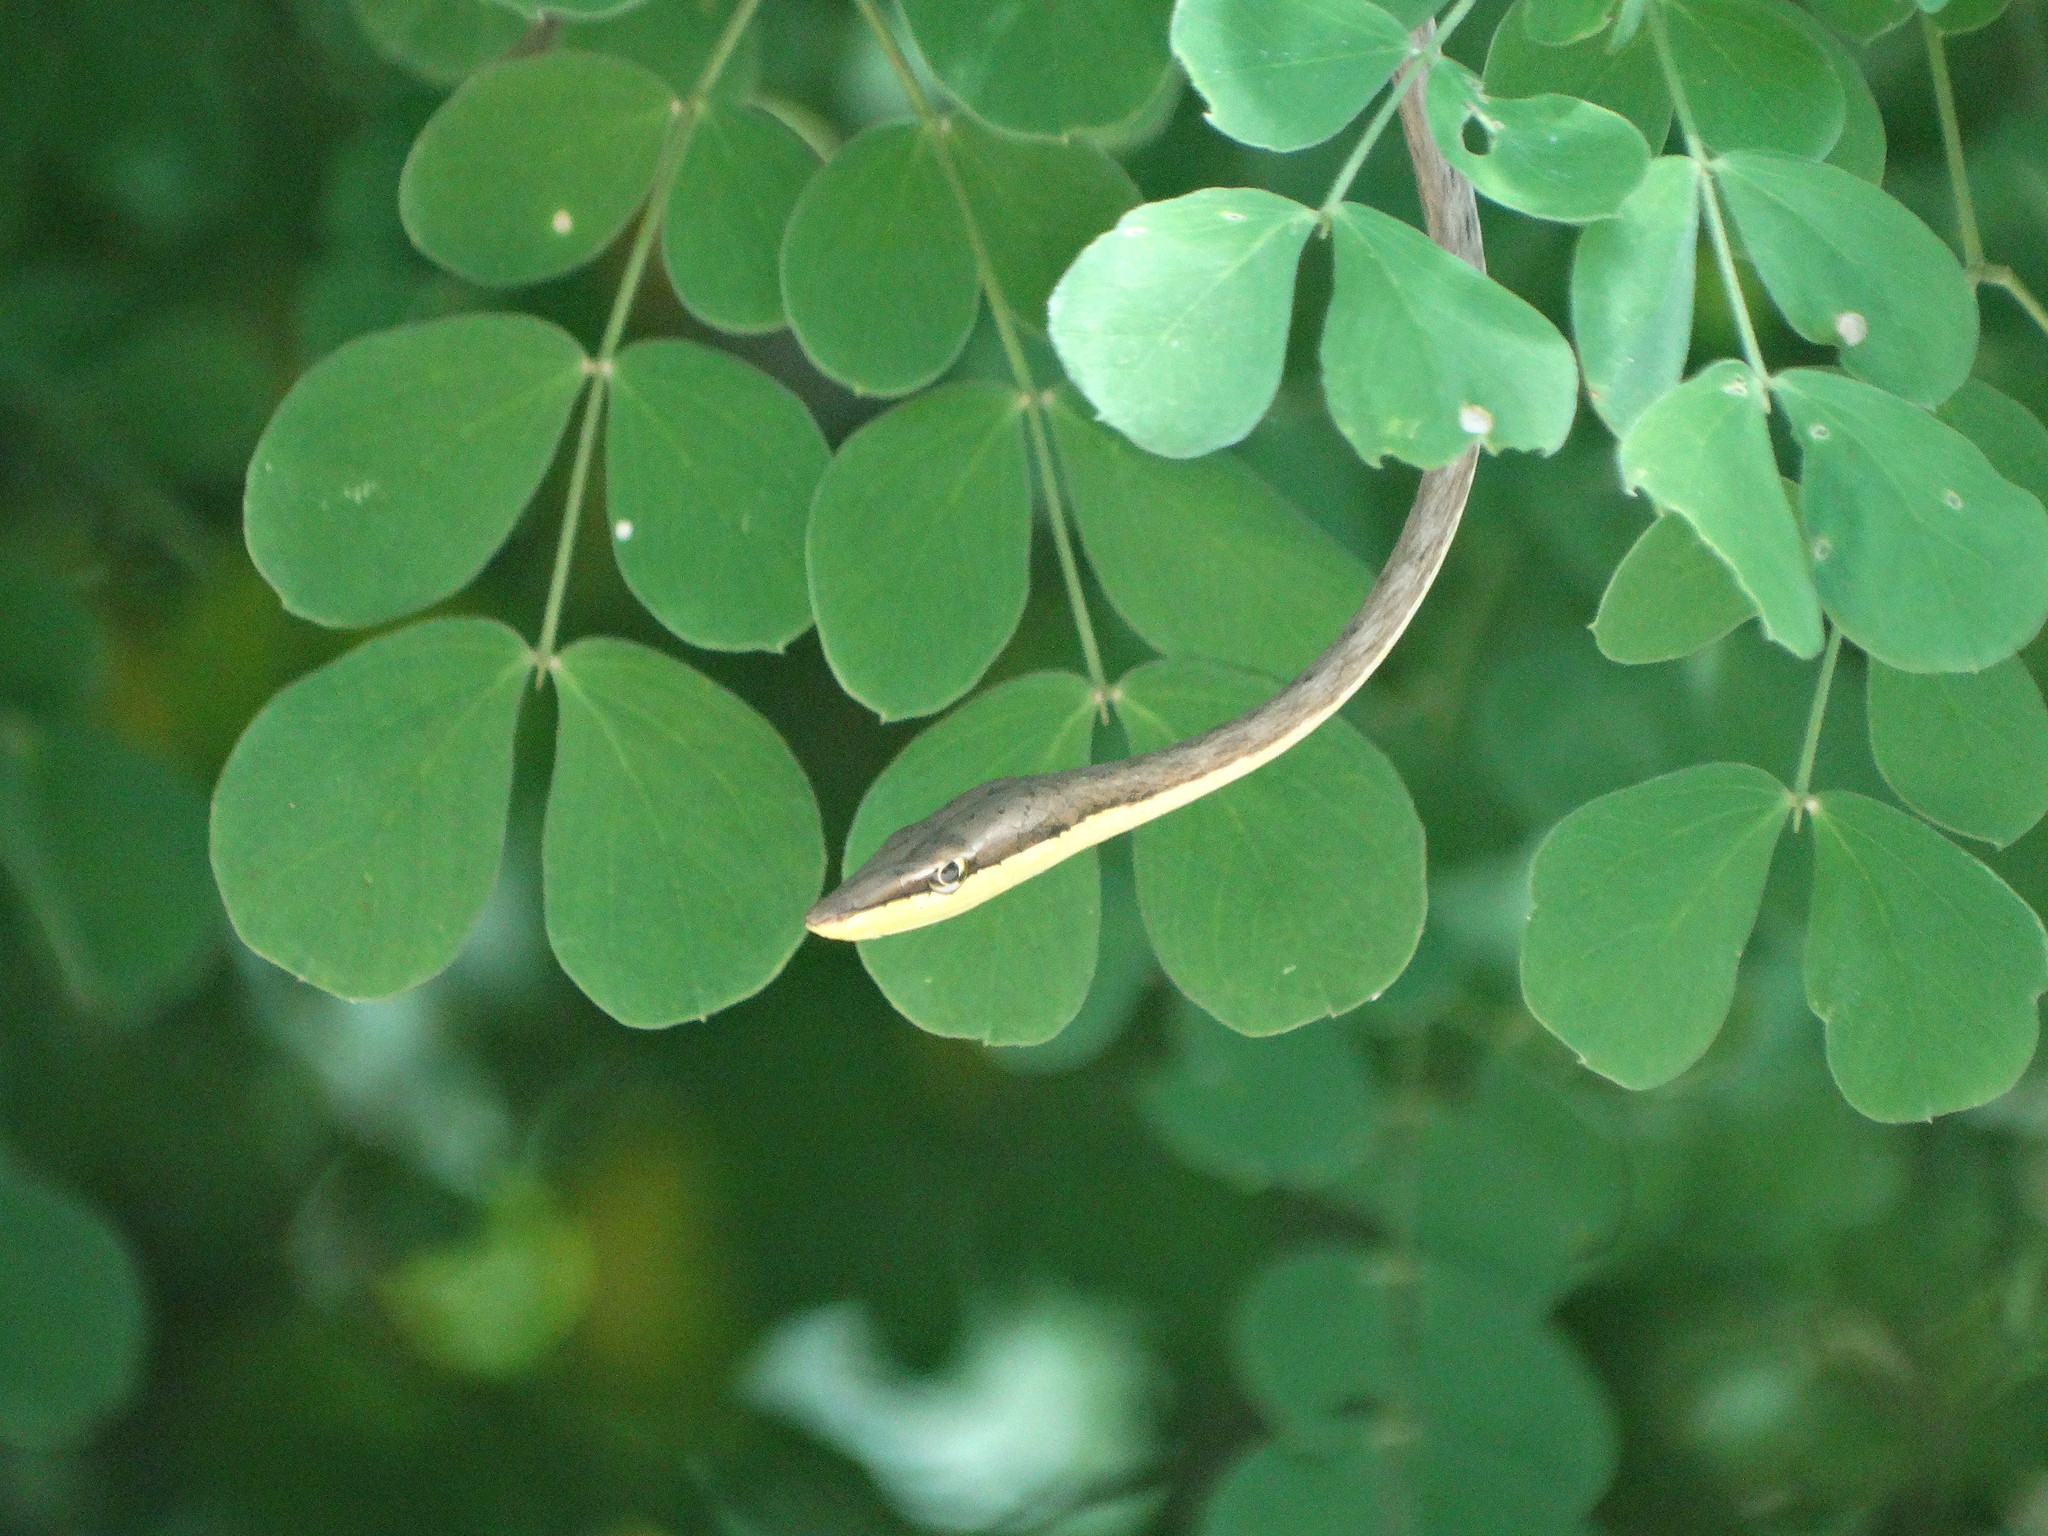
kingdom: Animalia
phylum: Chordata
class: Squamata
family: Colubridae
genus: Oxybelis
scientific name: Oxybelis microphthalmus
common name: Thrornscrub vine snake
